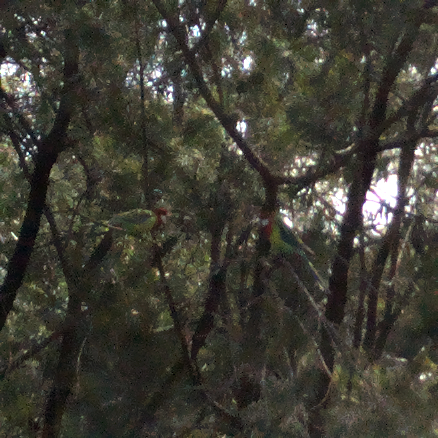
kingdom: Animalia
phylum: Chordata
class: Aves
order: Psittaciformes
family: Psittacidae
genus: Platycercus
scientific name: Platycercus eximius
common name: Eastern rosella
